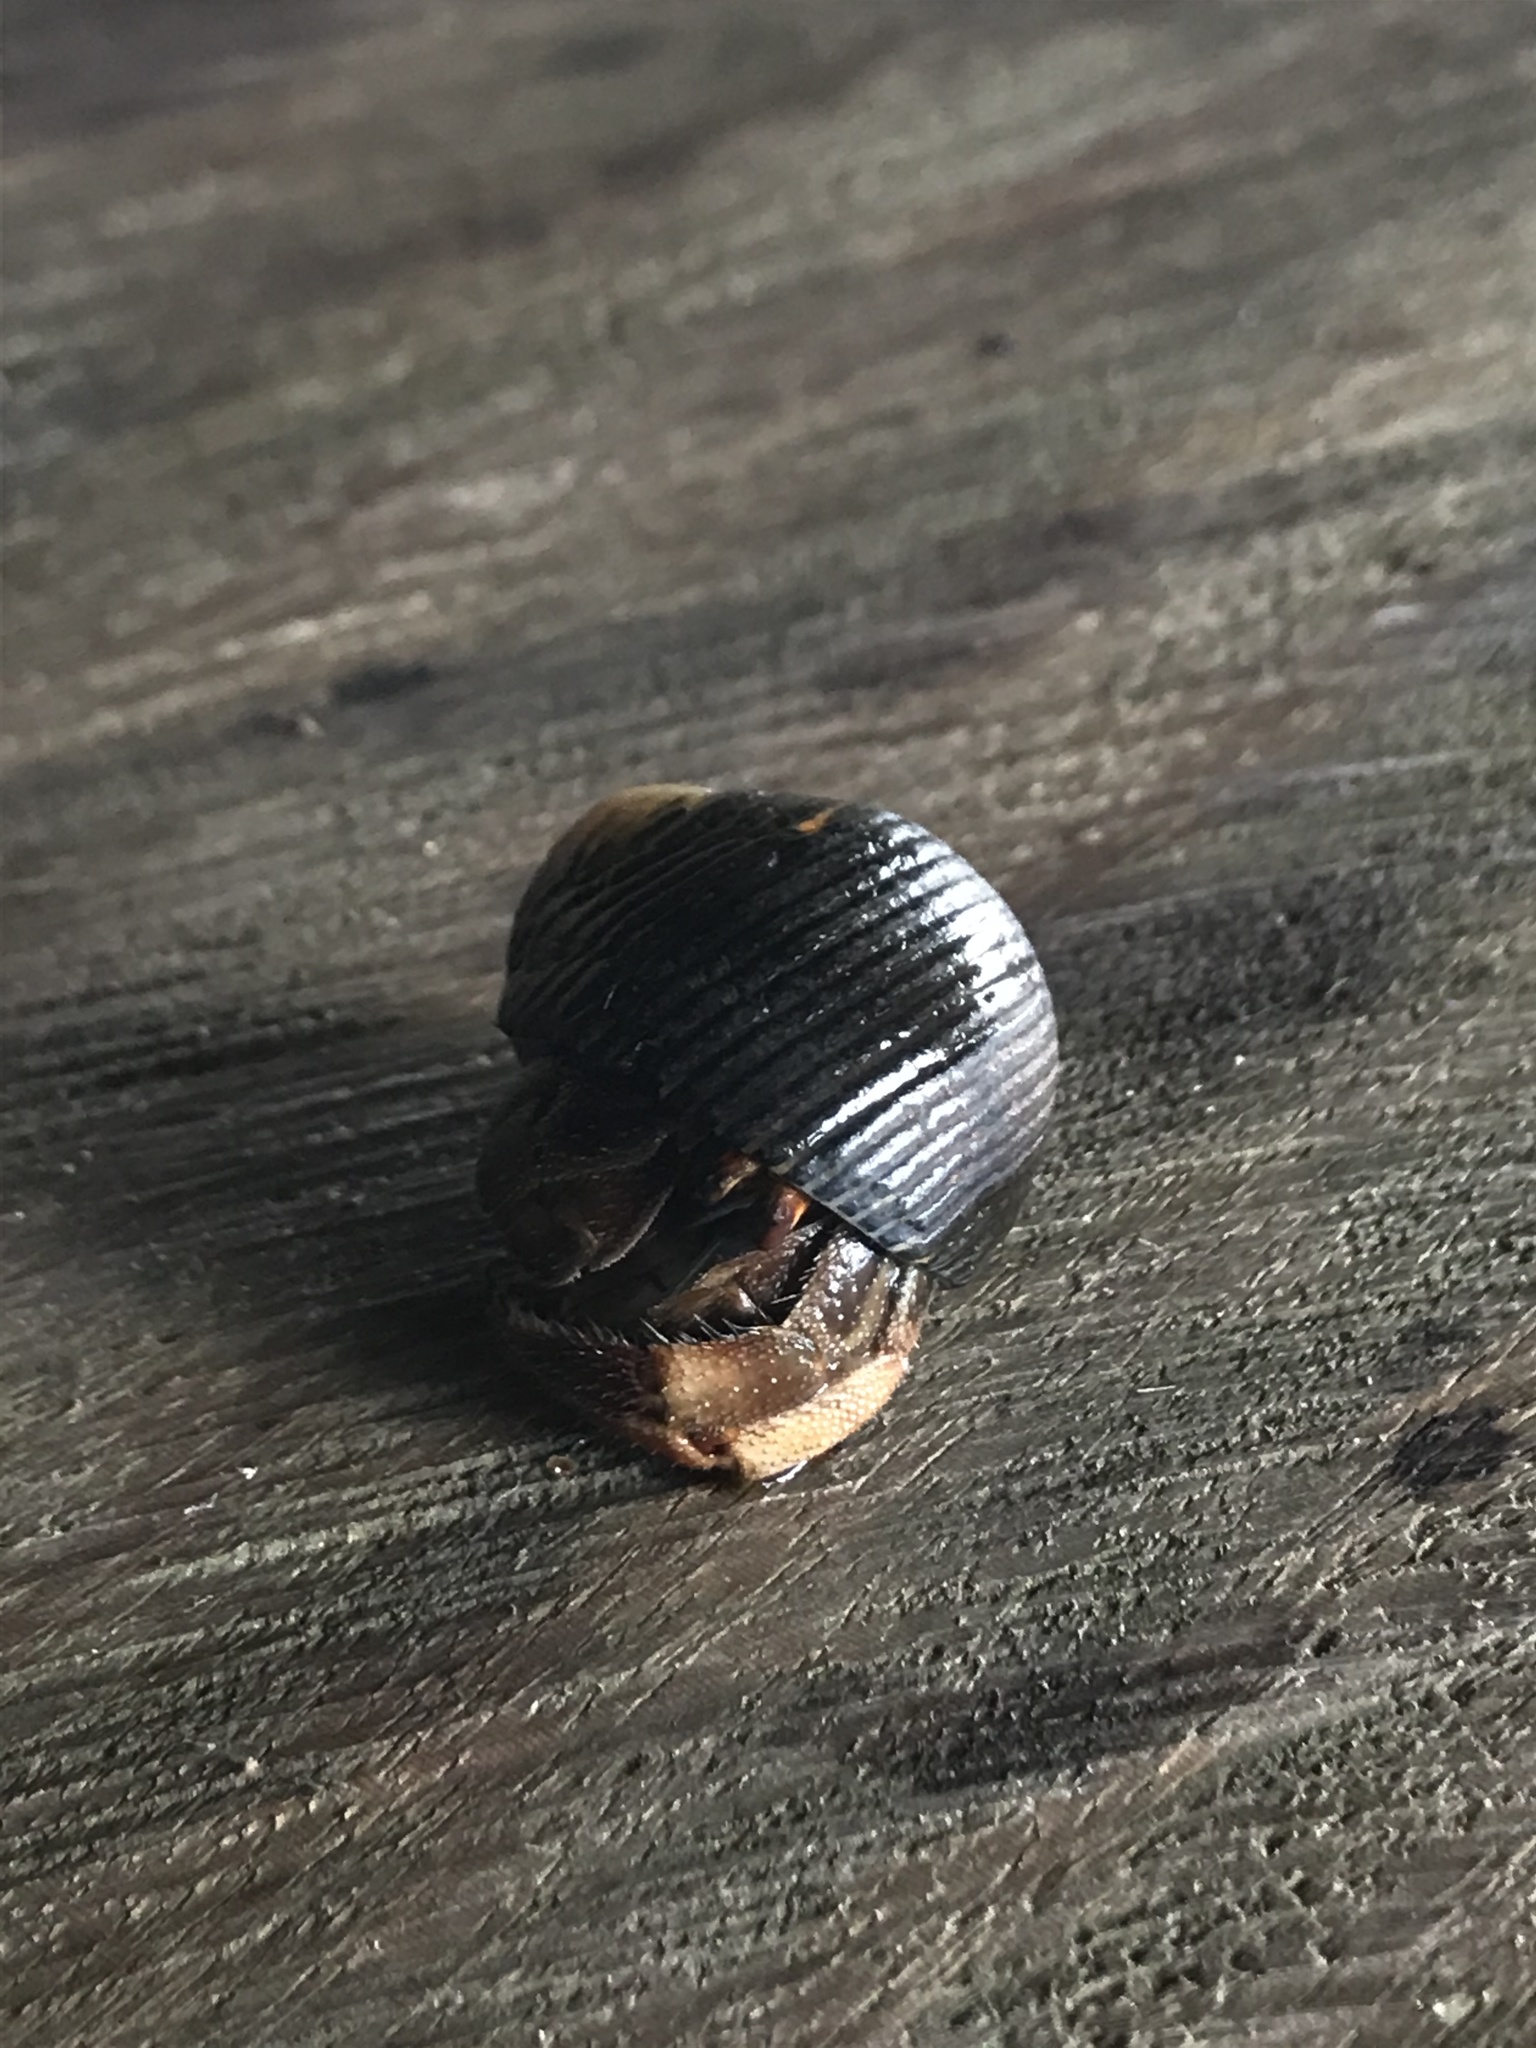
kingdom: Animalia
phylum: Arthropoda
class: Malacostraca
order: Decapoda
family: Coenobitidae
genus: Coenobita
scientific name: Coenobita compressus
